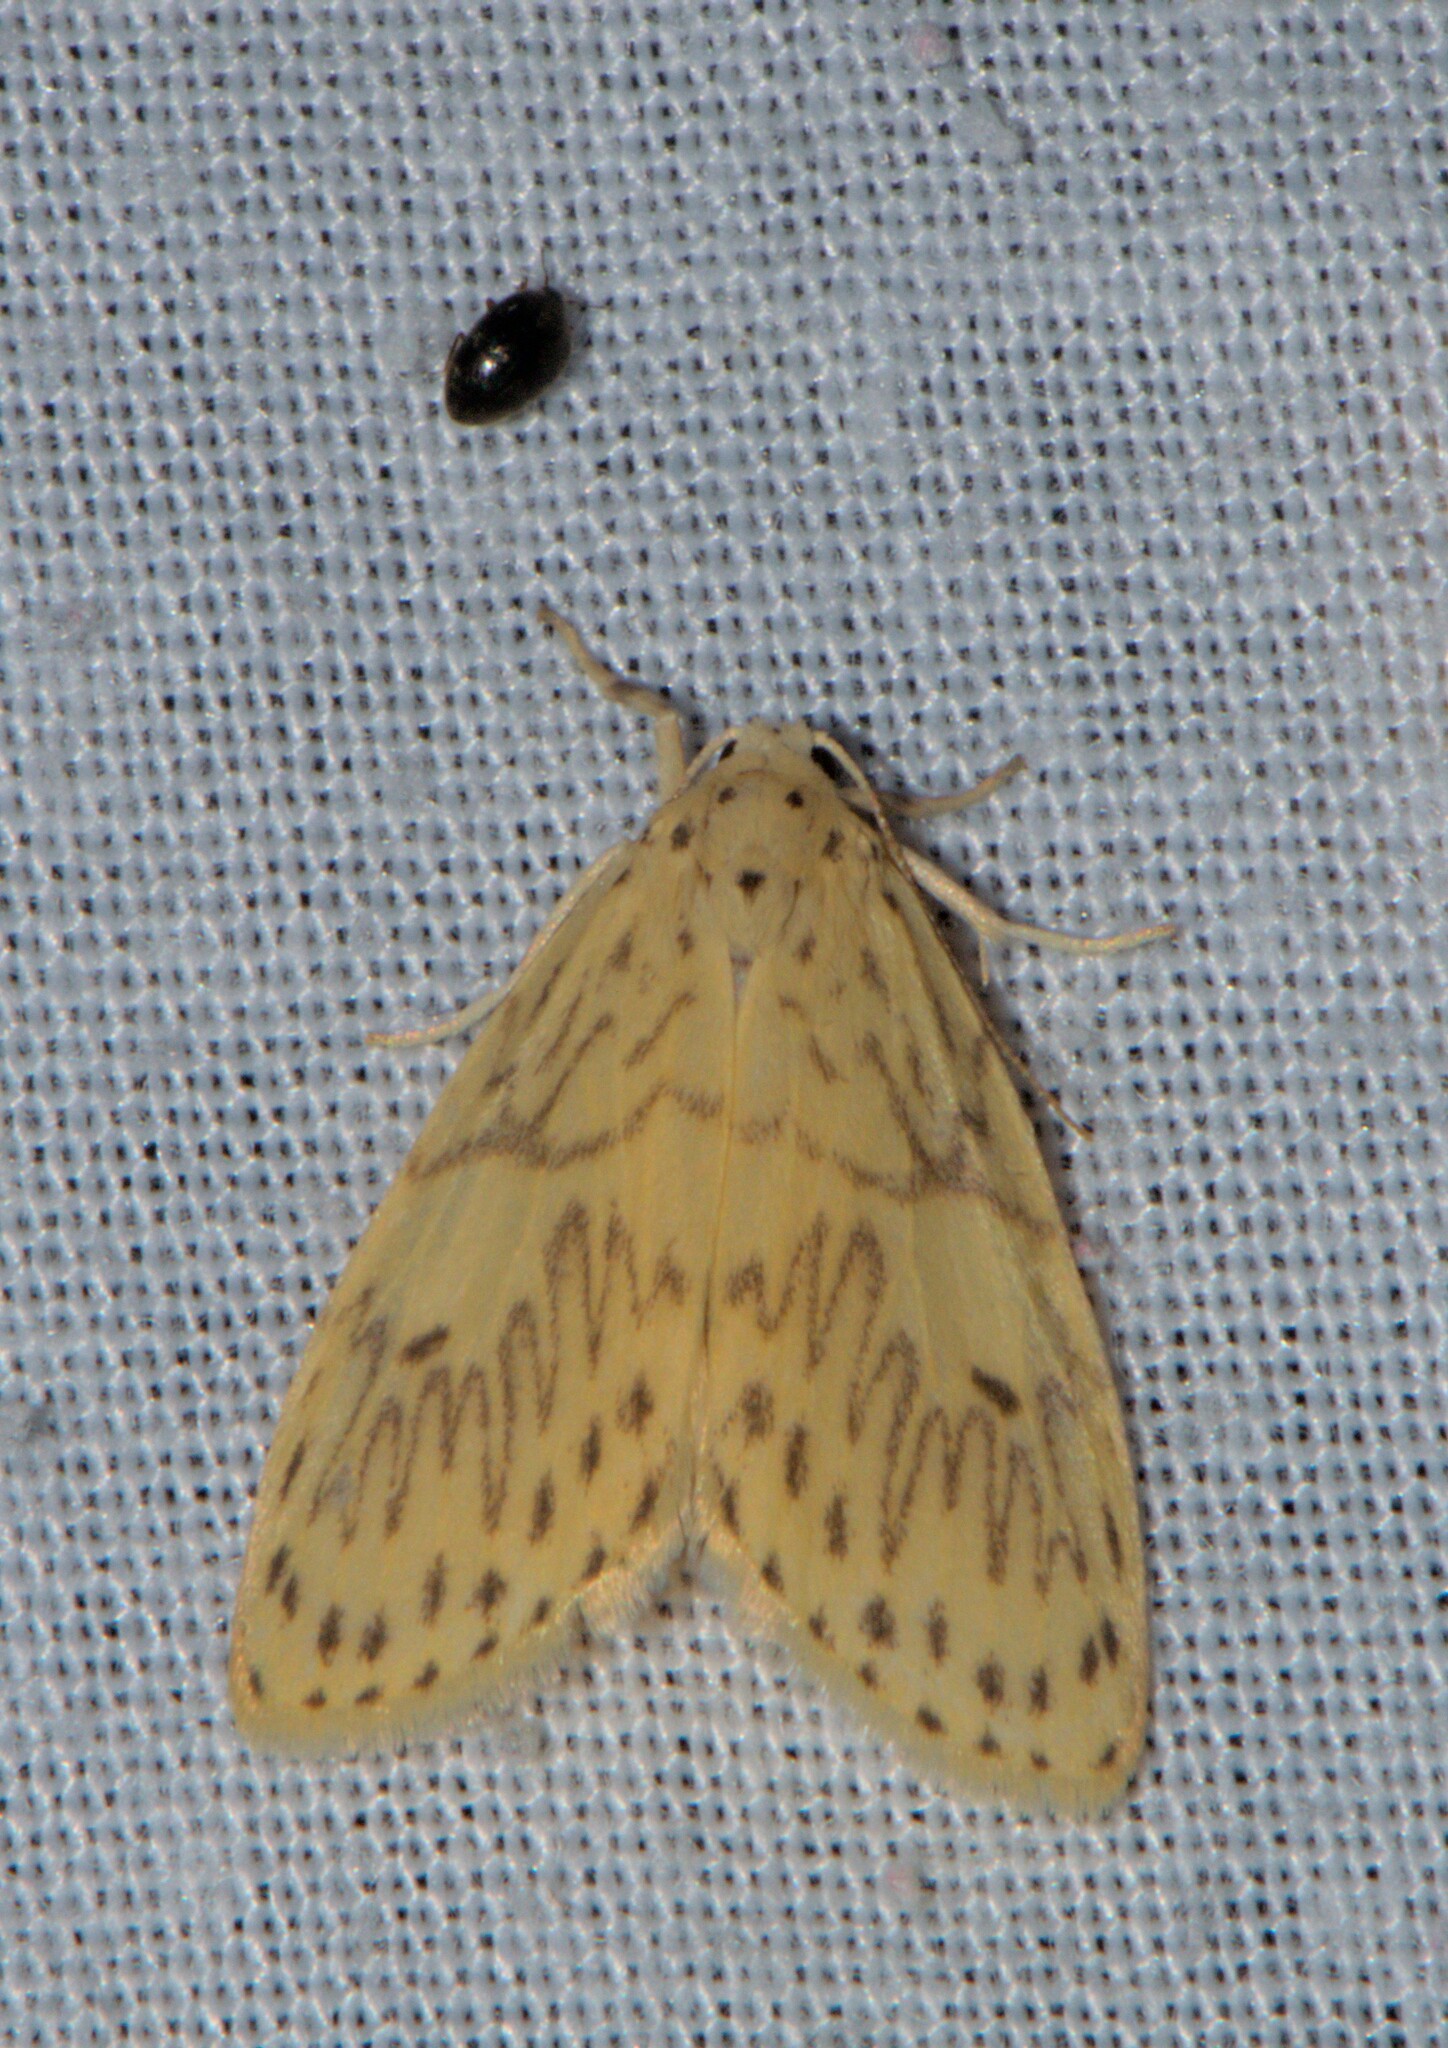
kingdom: Animalia
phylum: Arthropoda
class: Insecta
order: Lepidoptera
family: Erebidae
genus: Miltochrista
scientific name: Miltochrista undulosa
